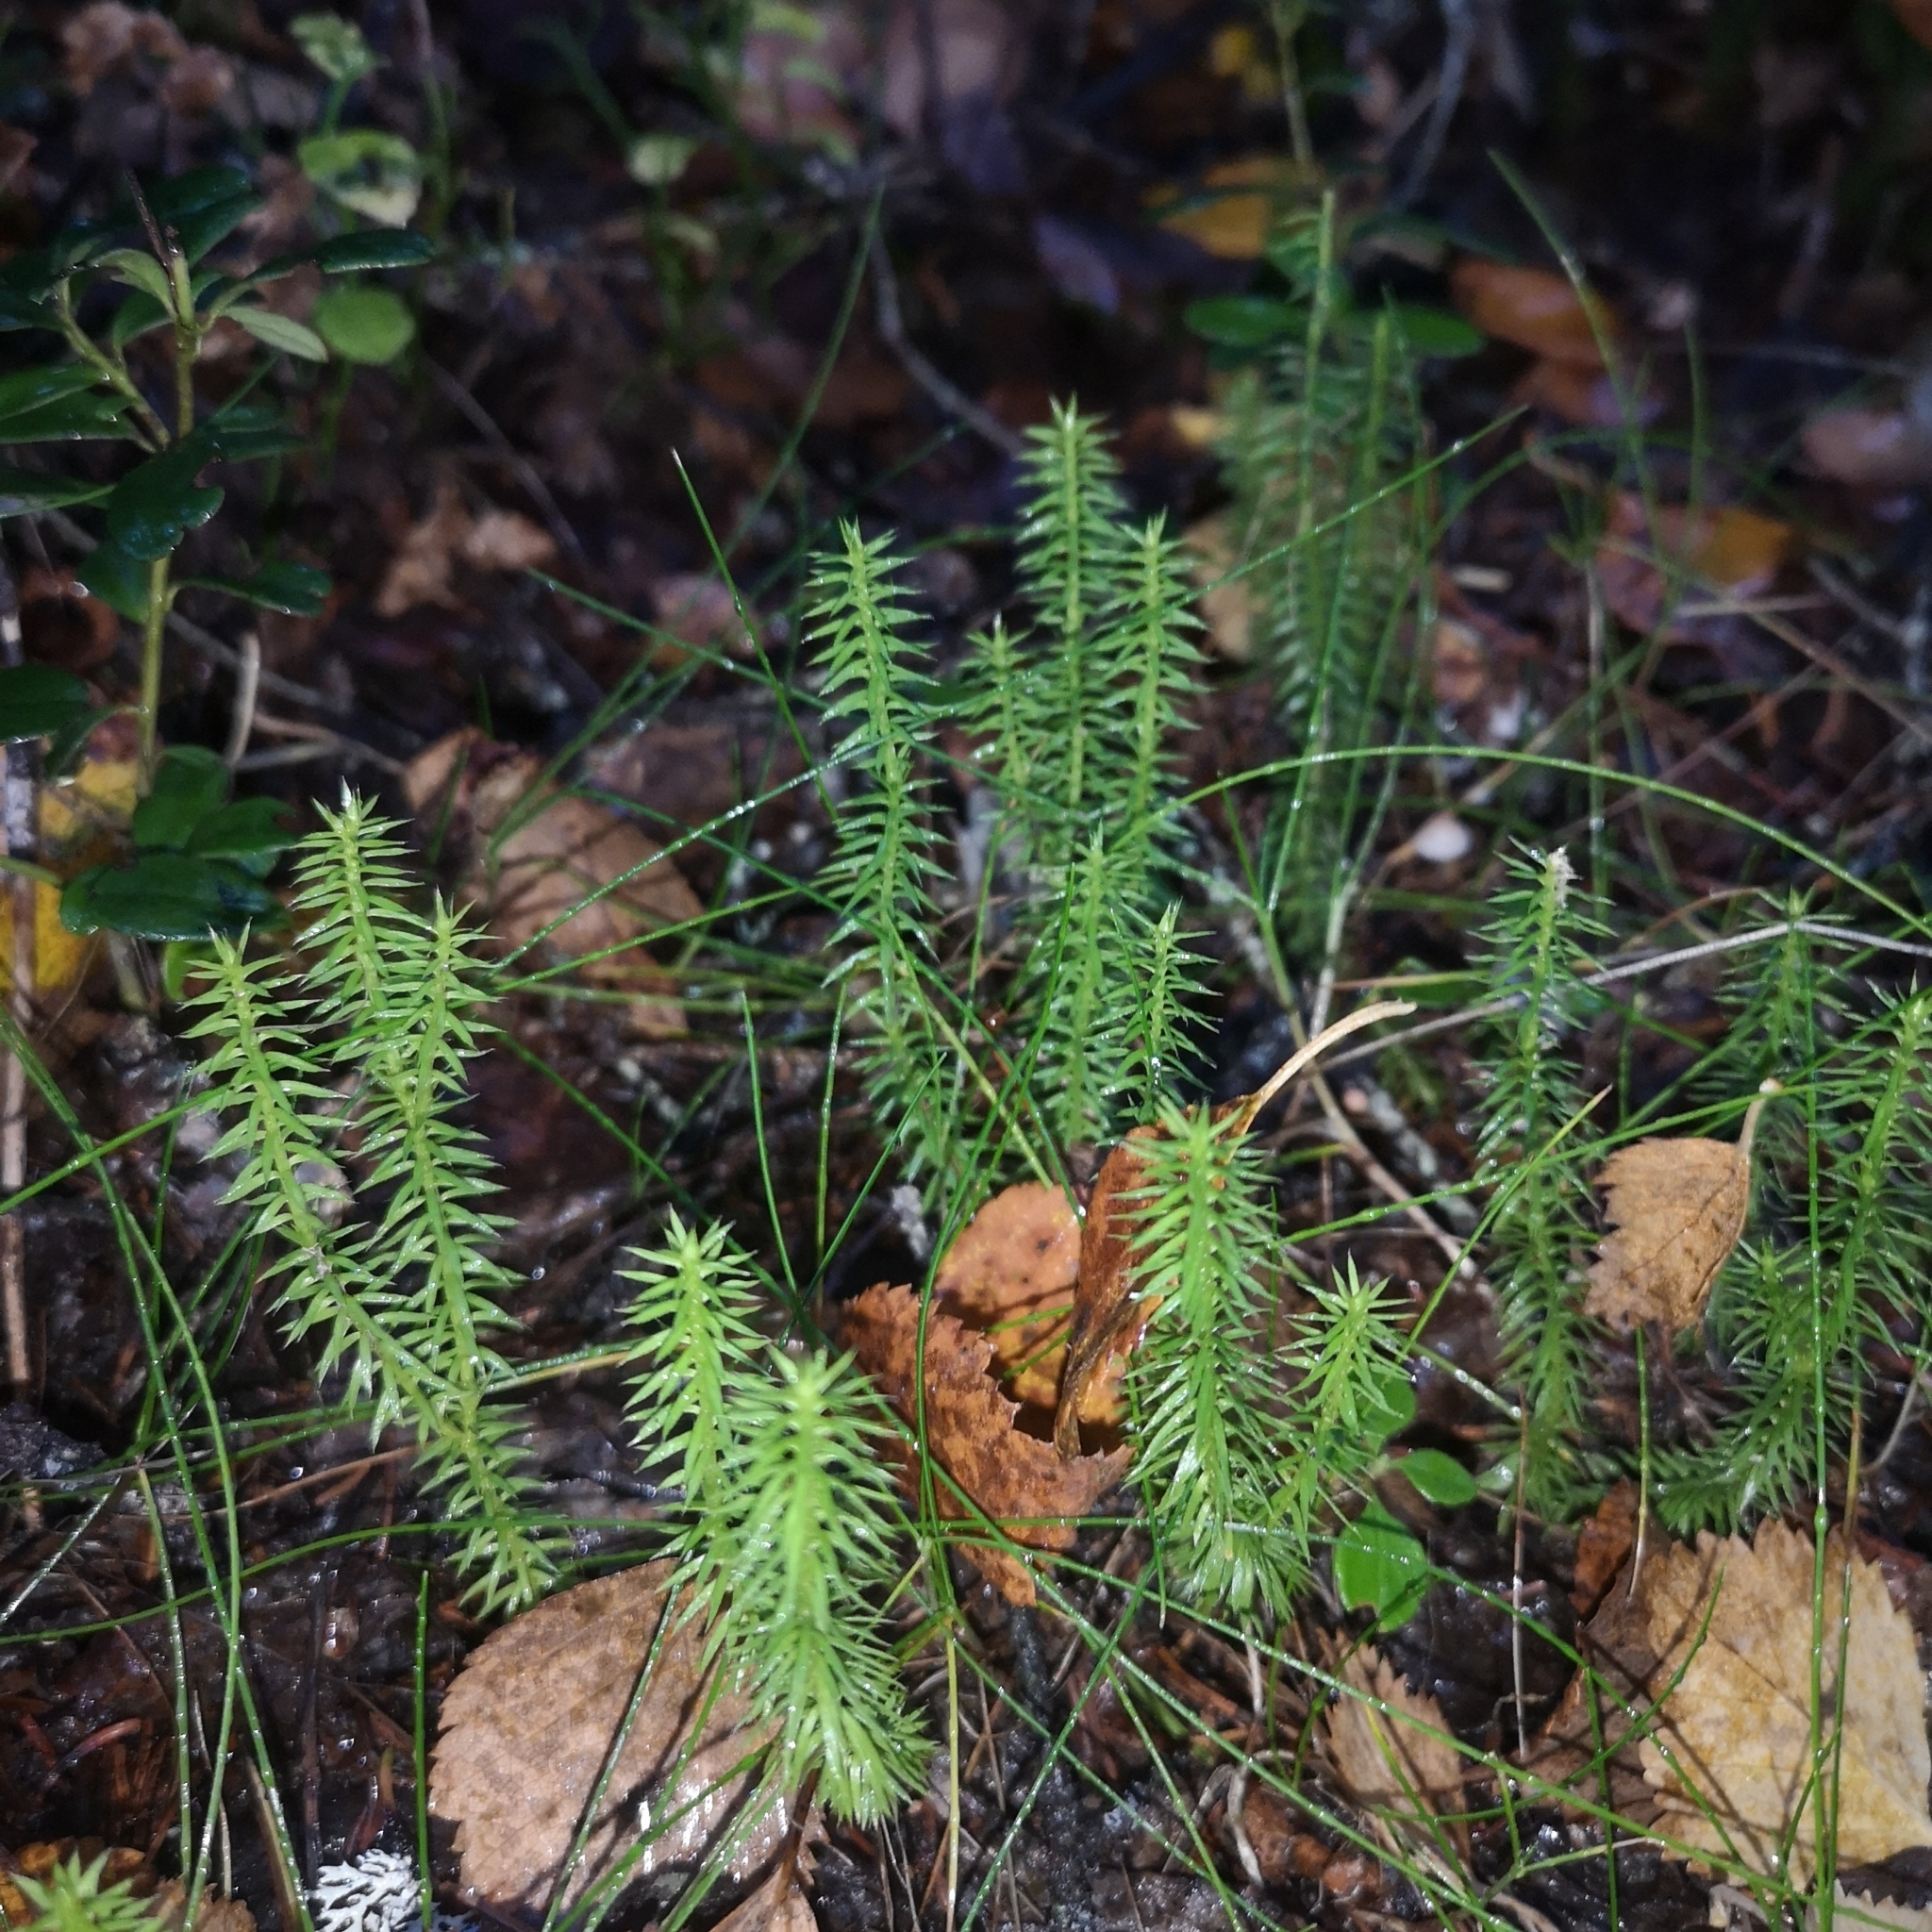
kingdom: Plantae
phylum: Tracheophyta
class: Lycopodiopsida
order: Lycopodiales
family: Lycopodiaceae
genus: Spinulum
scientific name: Spinulum annotinum
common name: Interrupted club-moss
